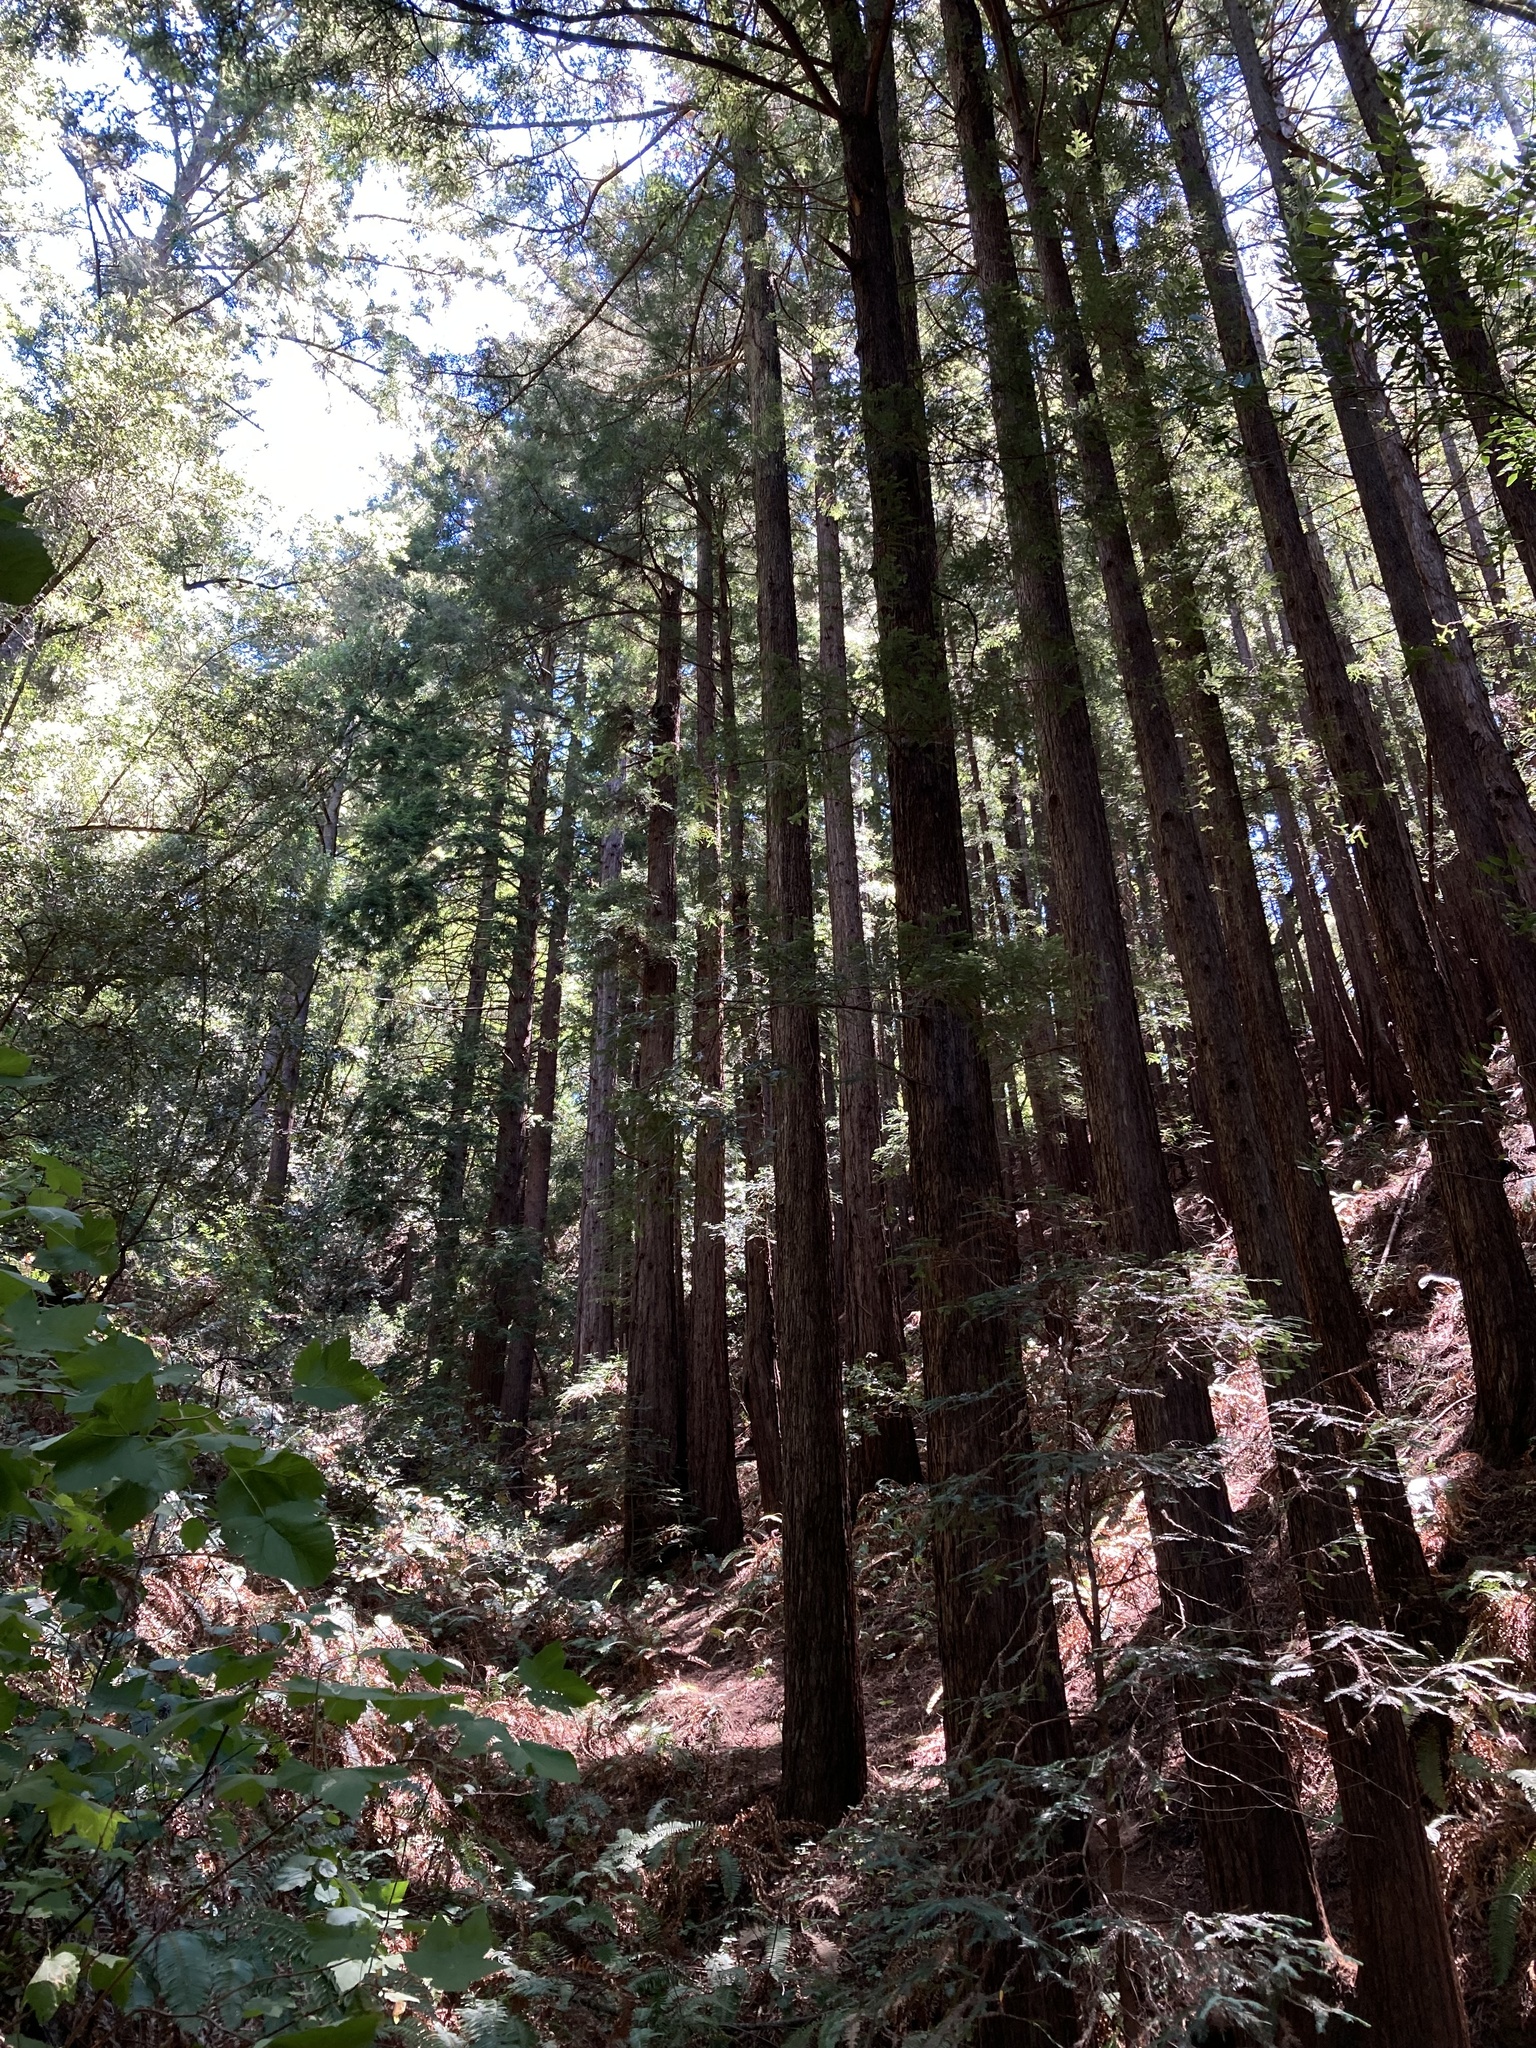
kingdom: Plantae
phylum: Tracheophyta
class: Pinopsida
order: Pinales
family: Cupressaceae
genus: Sequoia
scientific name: Sequoia sempervirens
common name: Coast redwood
